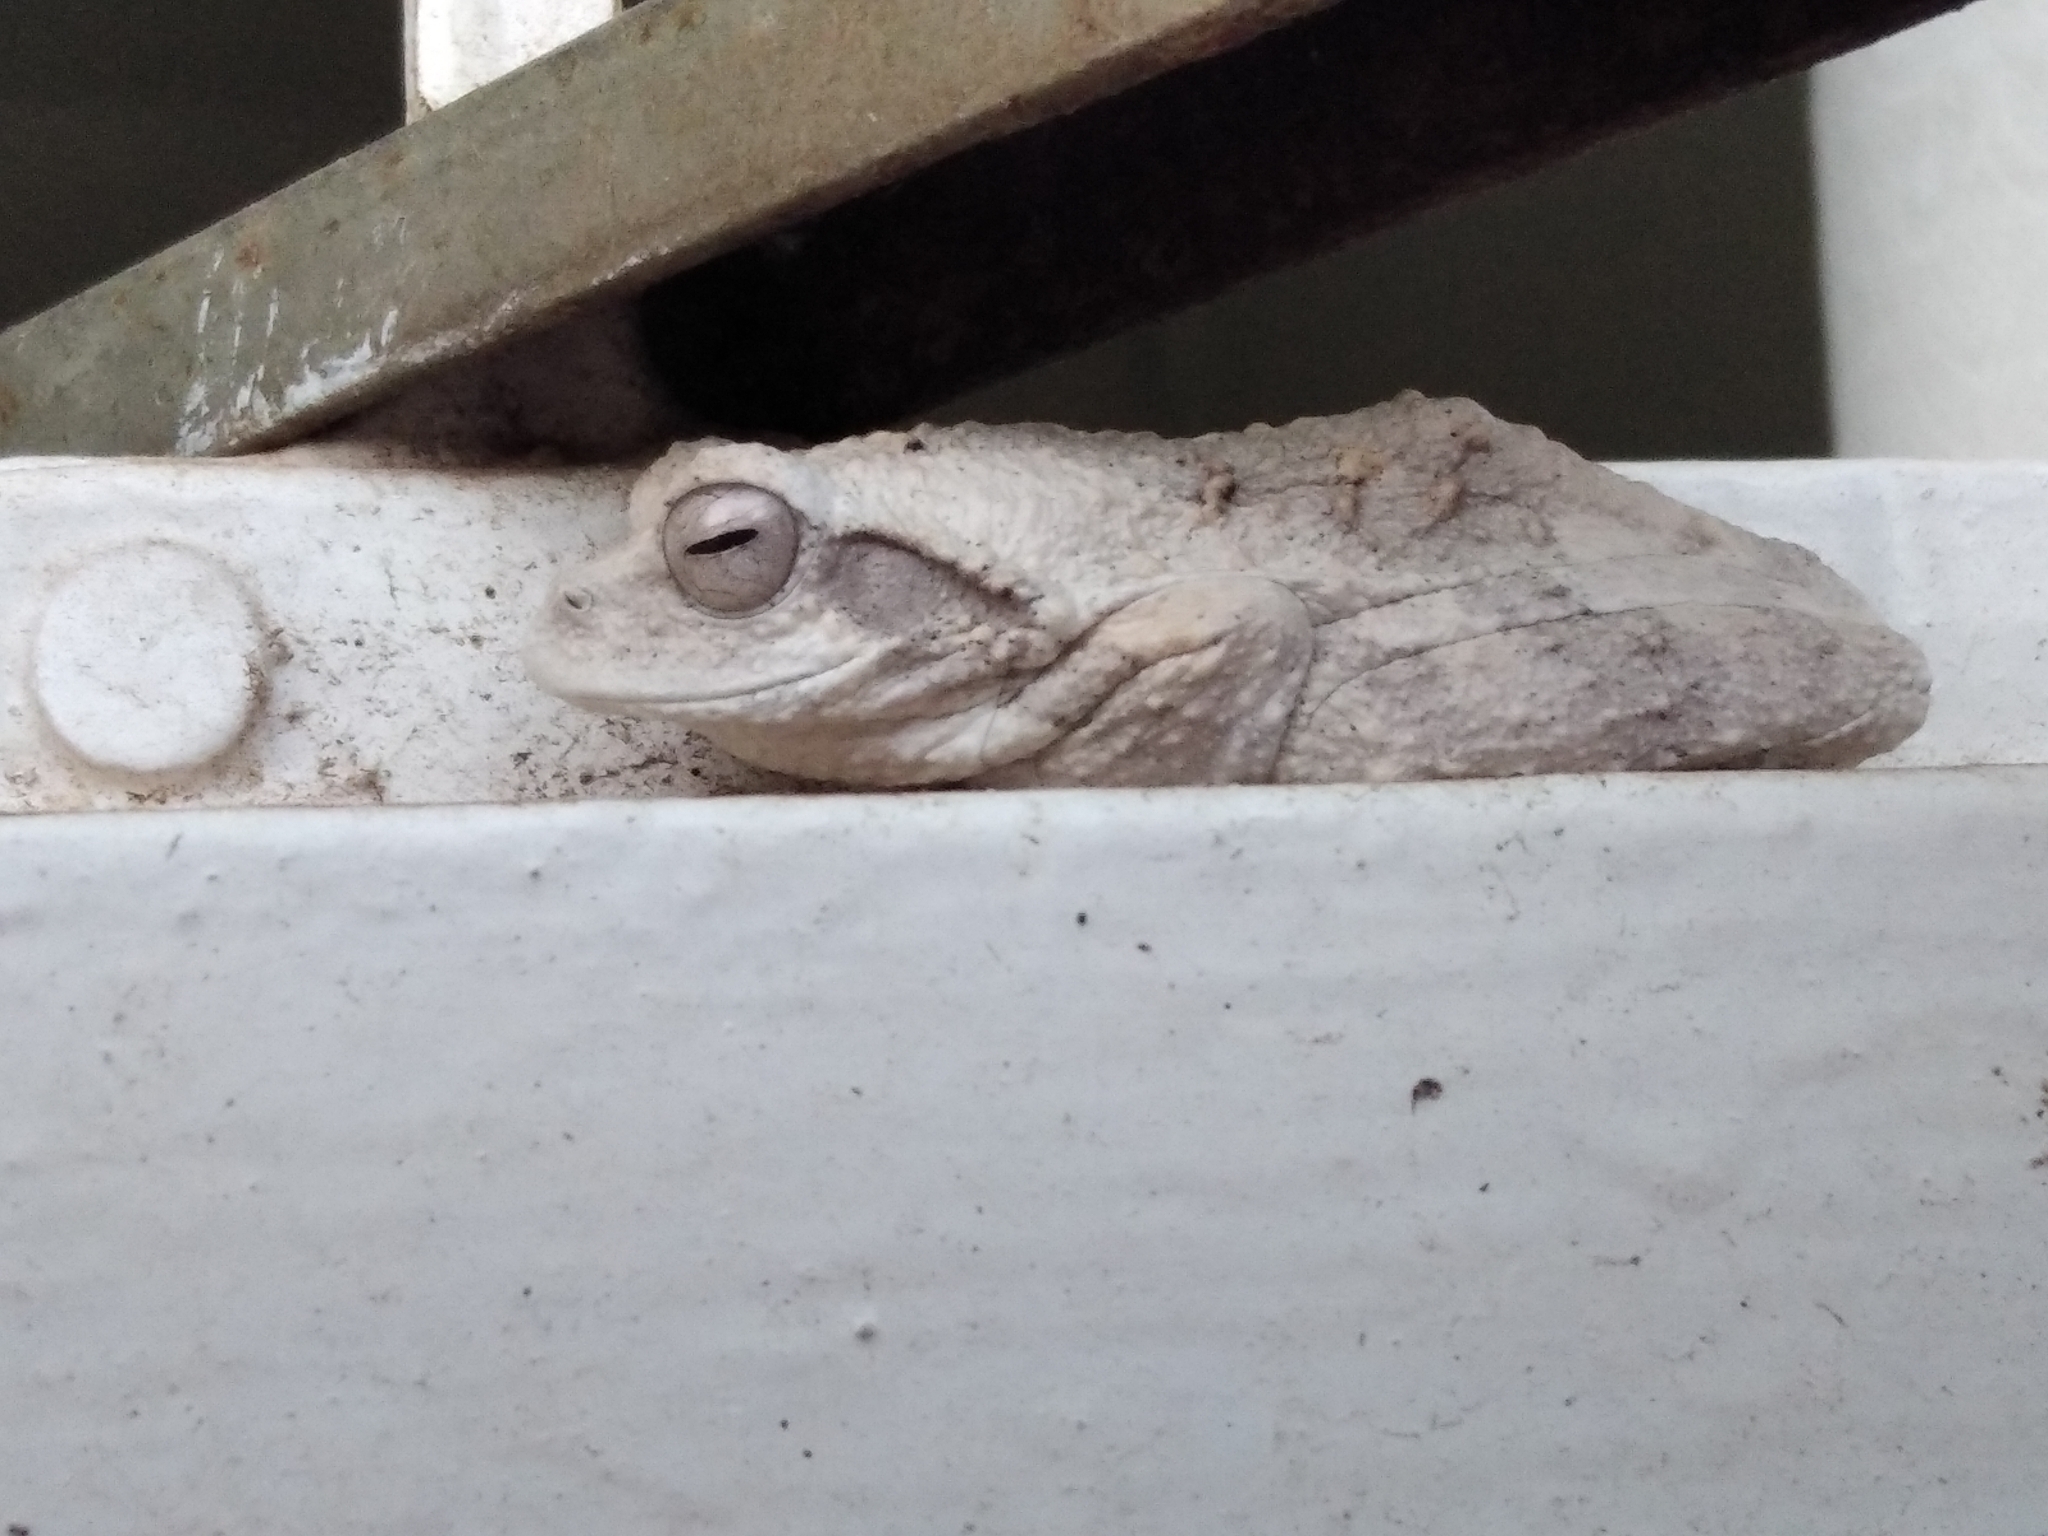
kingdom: Animalia
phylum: Chordata
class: Amphibia
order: Anura
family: Rhacophoridae
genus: Chiromantis
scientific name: Chiromantis xerampelina
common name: African gray treefrog
